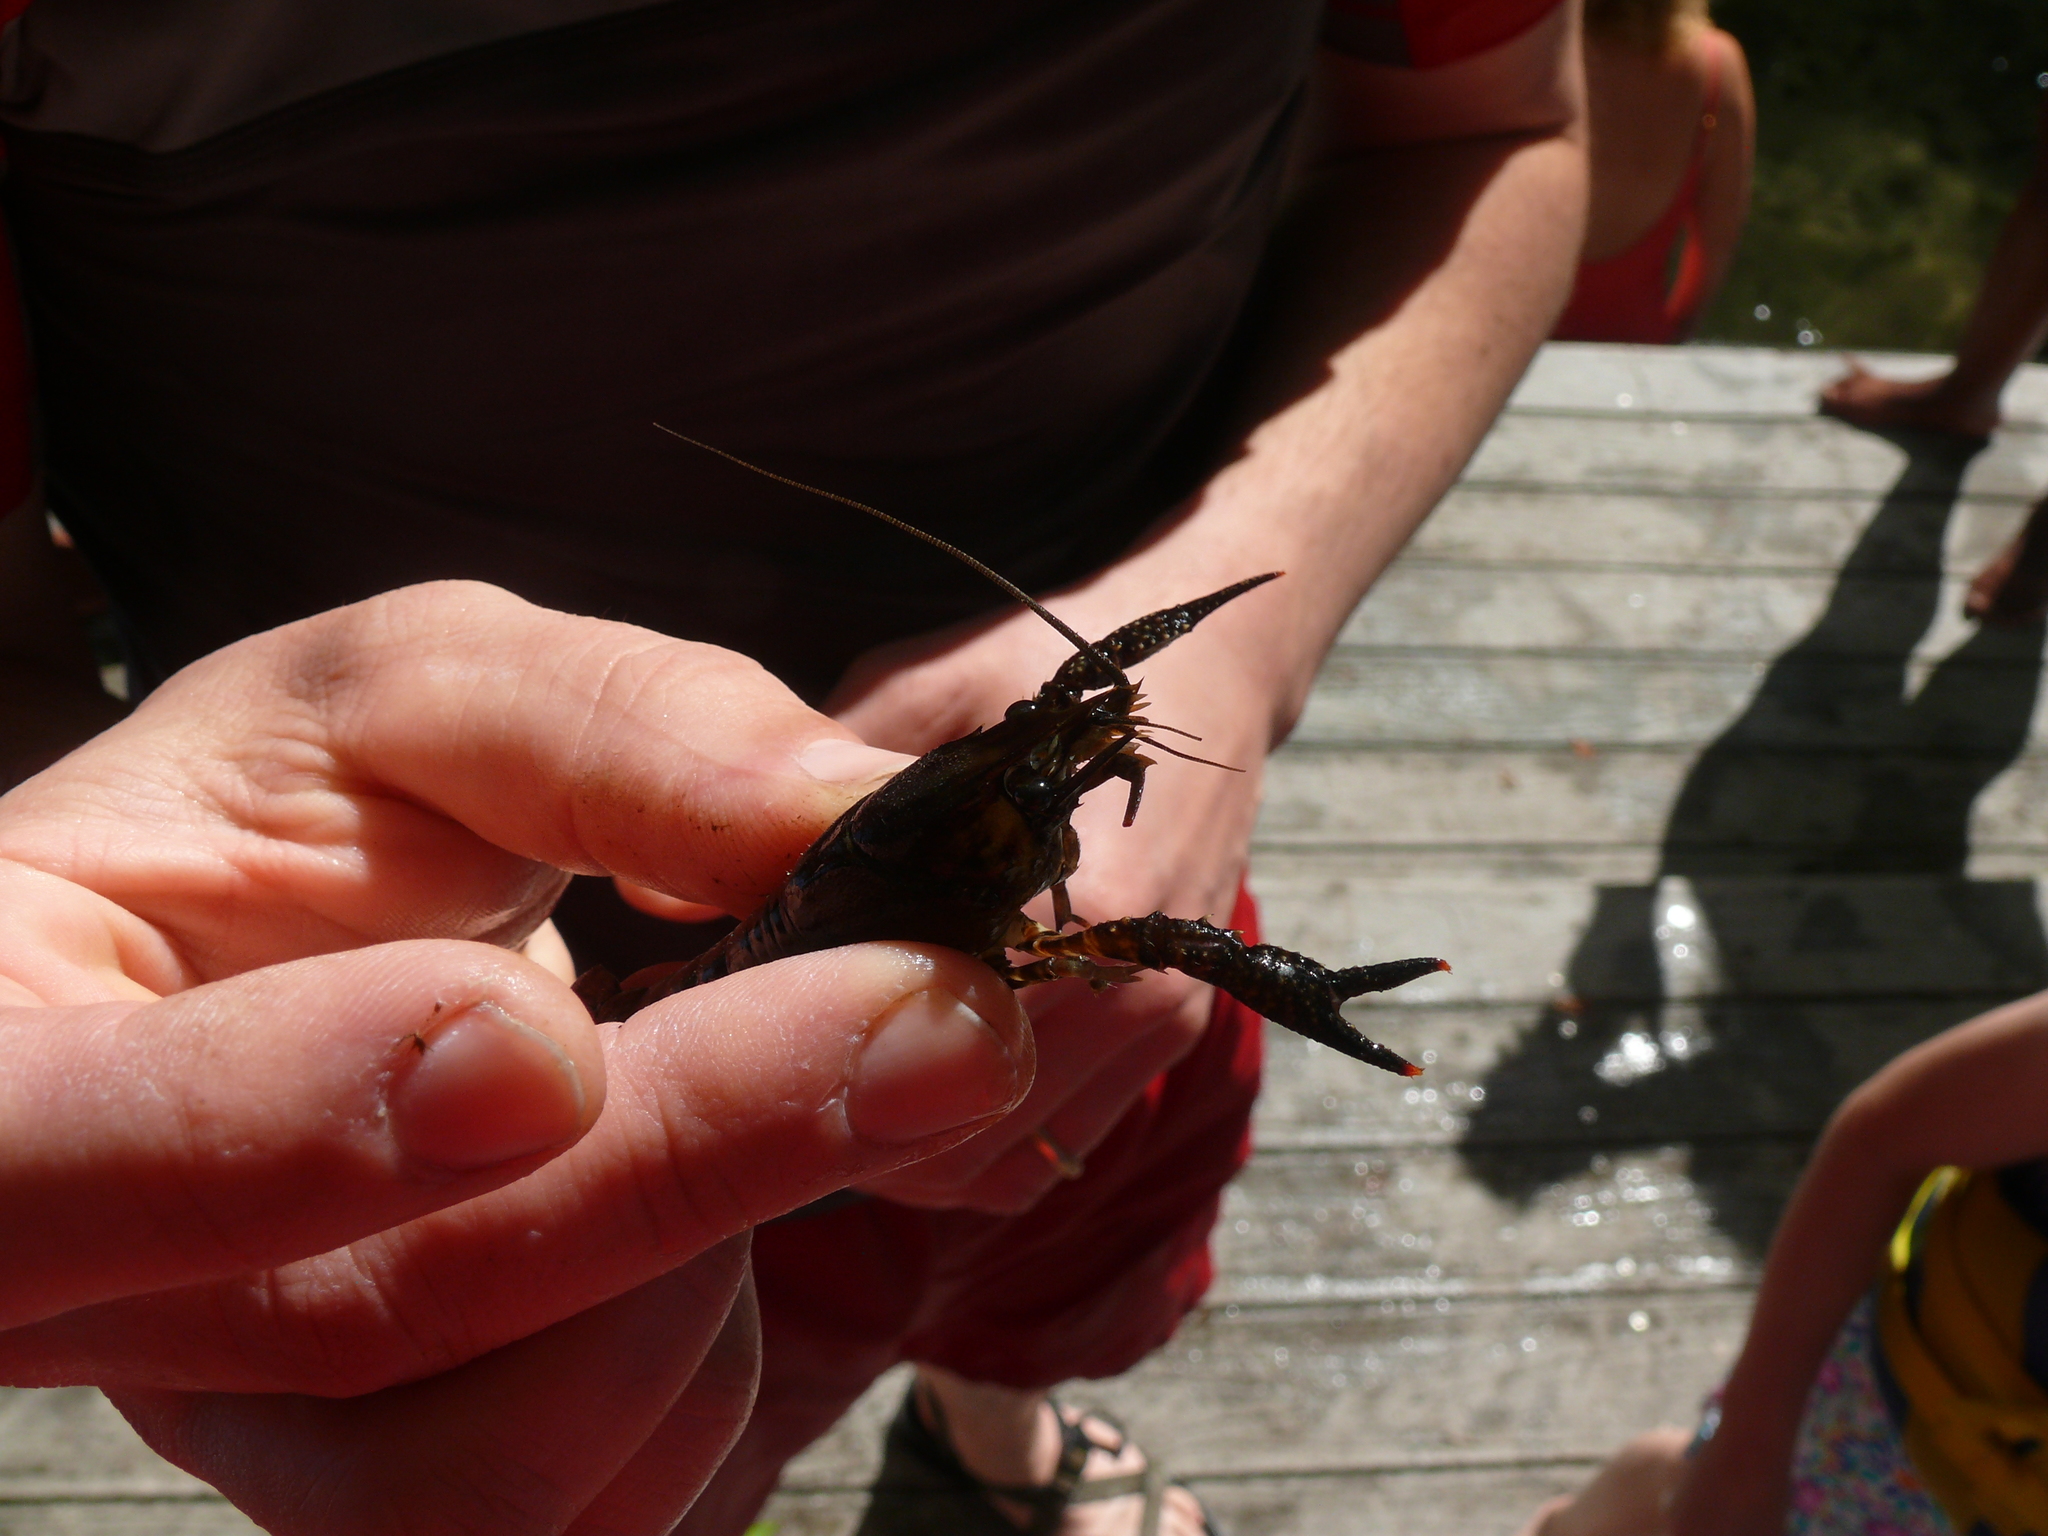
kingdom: Animalia
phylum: Arthropoda
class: Malacostraca
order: Decapoda
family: Cambaridae
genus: Procambarus
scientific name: Procambarus spiculifer
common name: White tubercled crayfish
